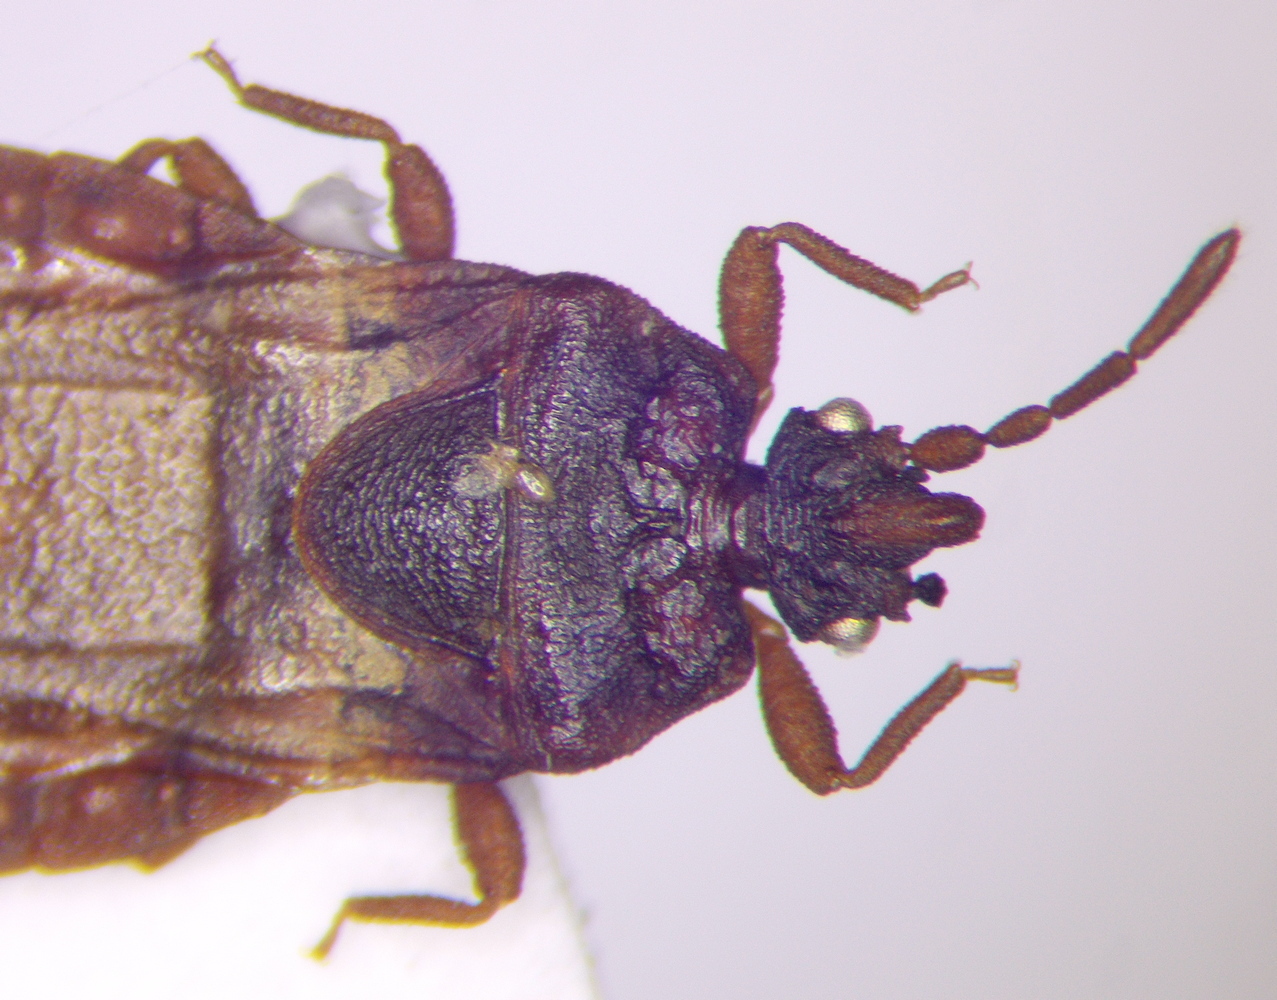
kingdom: Animalia
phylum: Arthropoda
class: Insecta
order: Hemiptera
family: Aradidae
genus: Aneurus
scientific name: Aneurus laevis
